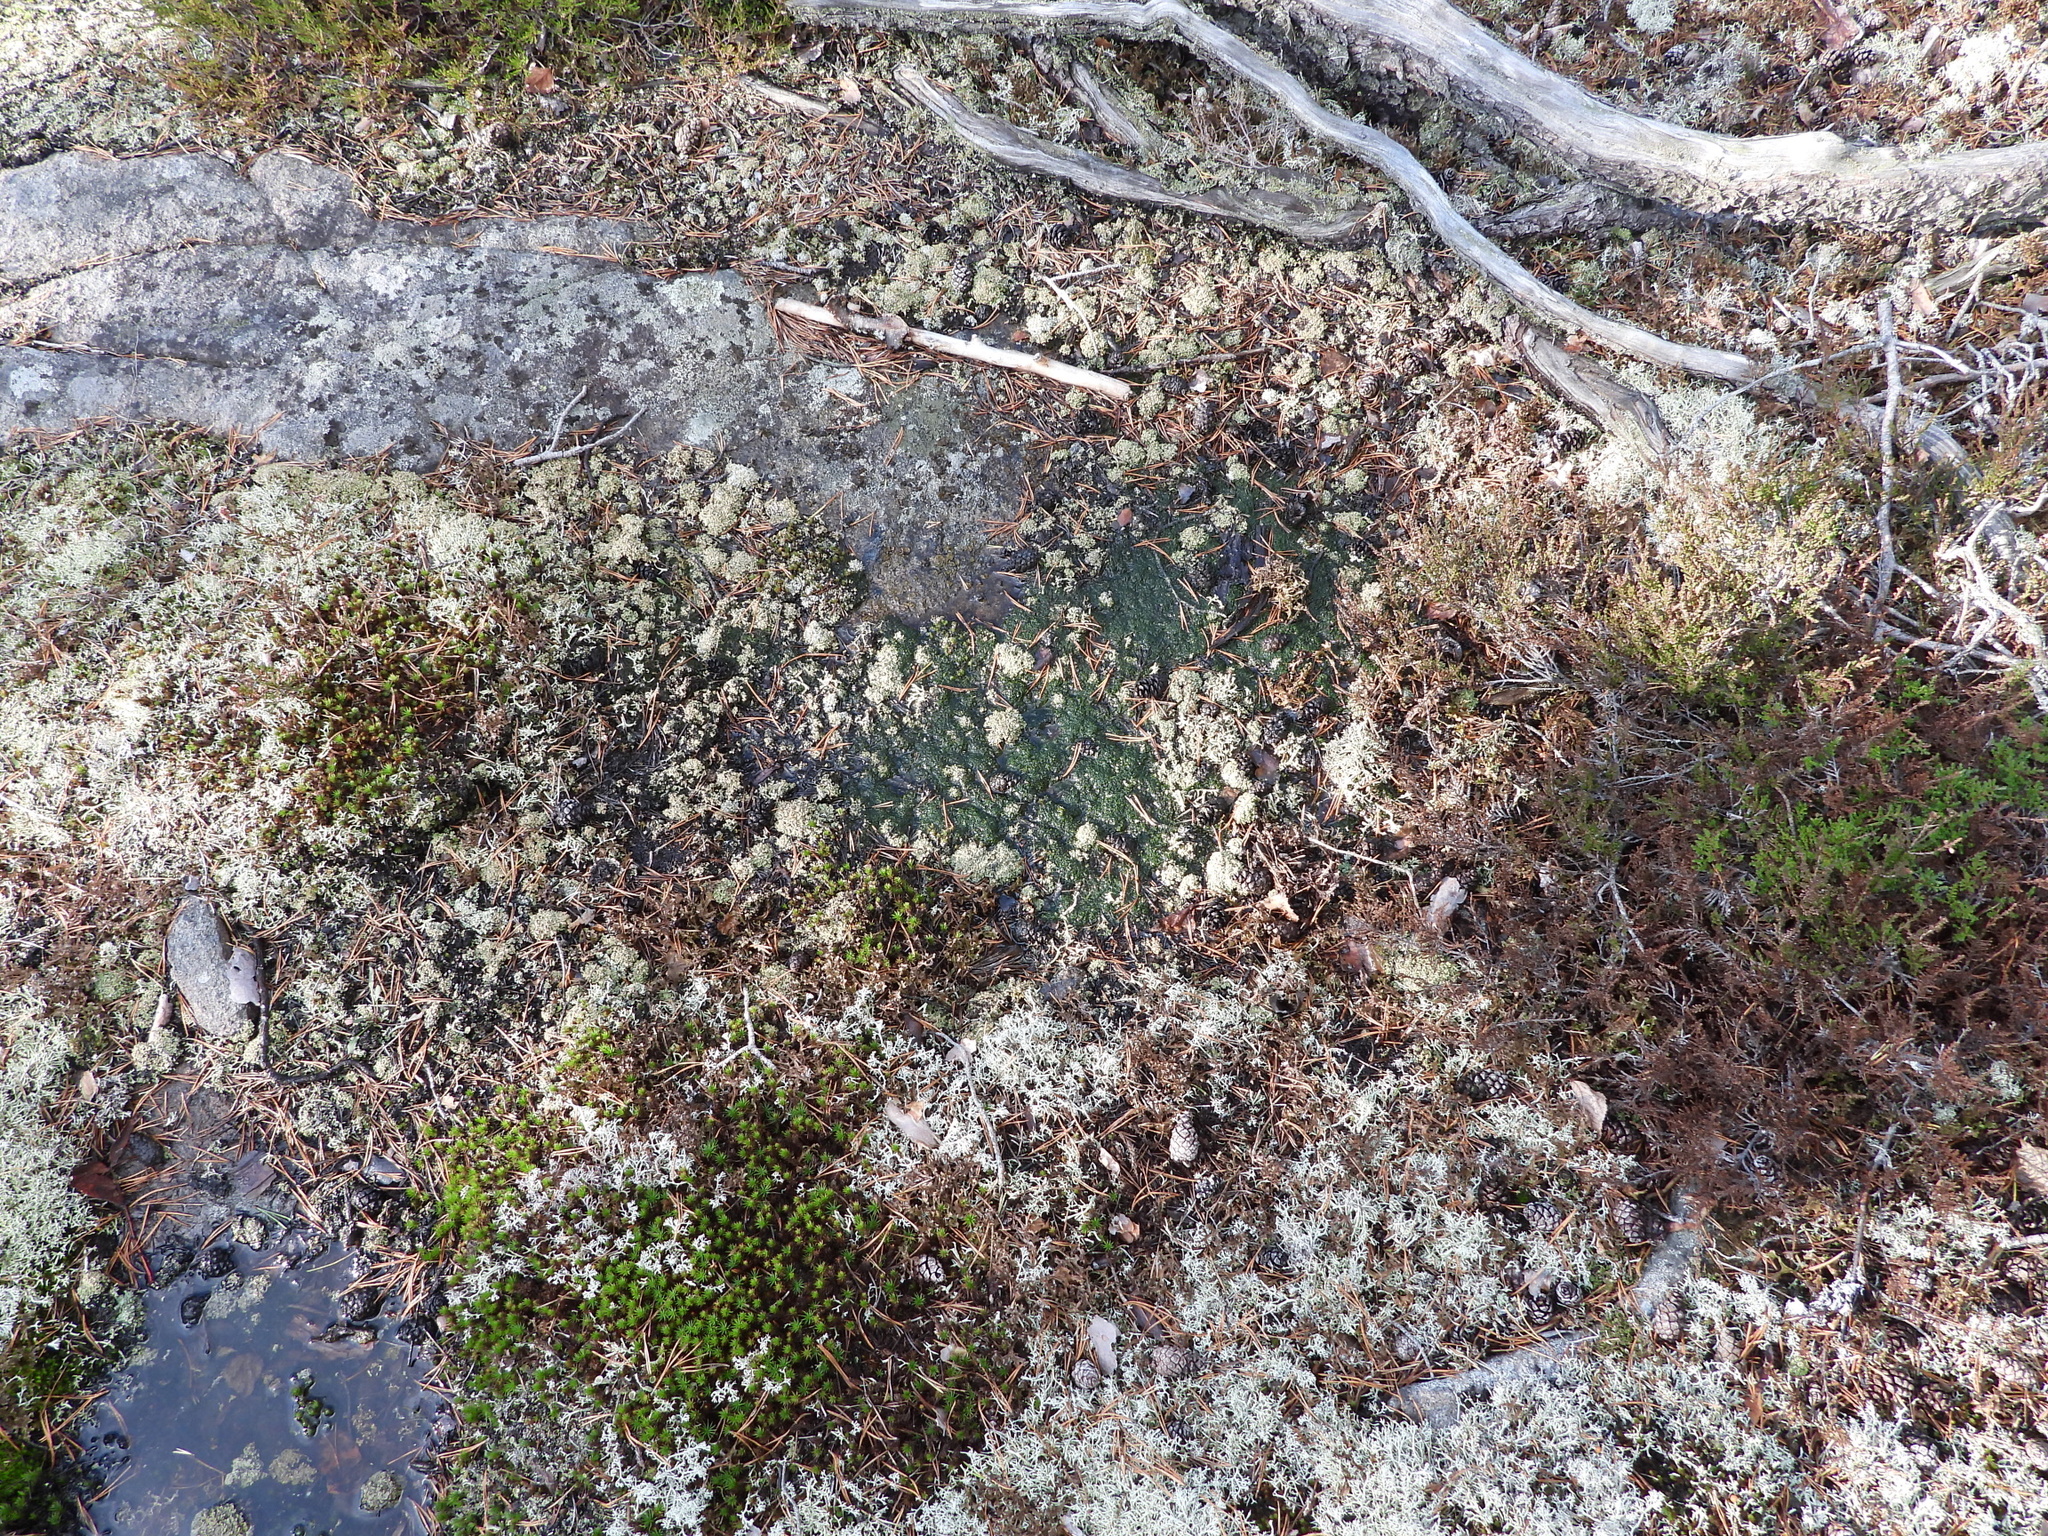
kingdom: Fungi
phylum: Ascomycota
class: Lecanoromycetes
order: Lecanorales
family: Cladoniaceae
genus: Cladonia
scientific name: Cladonia strepsilis
